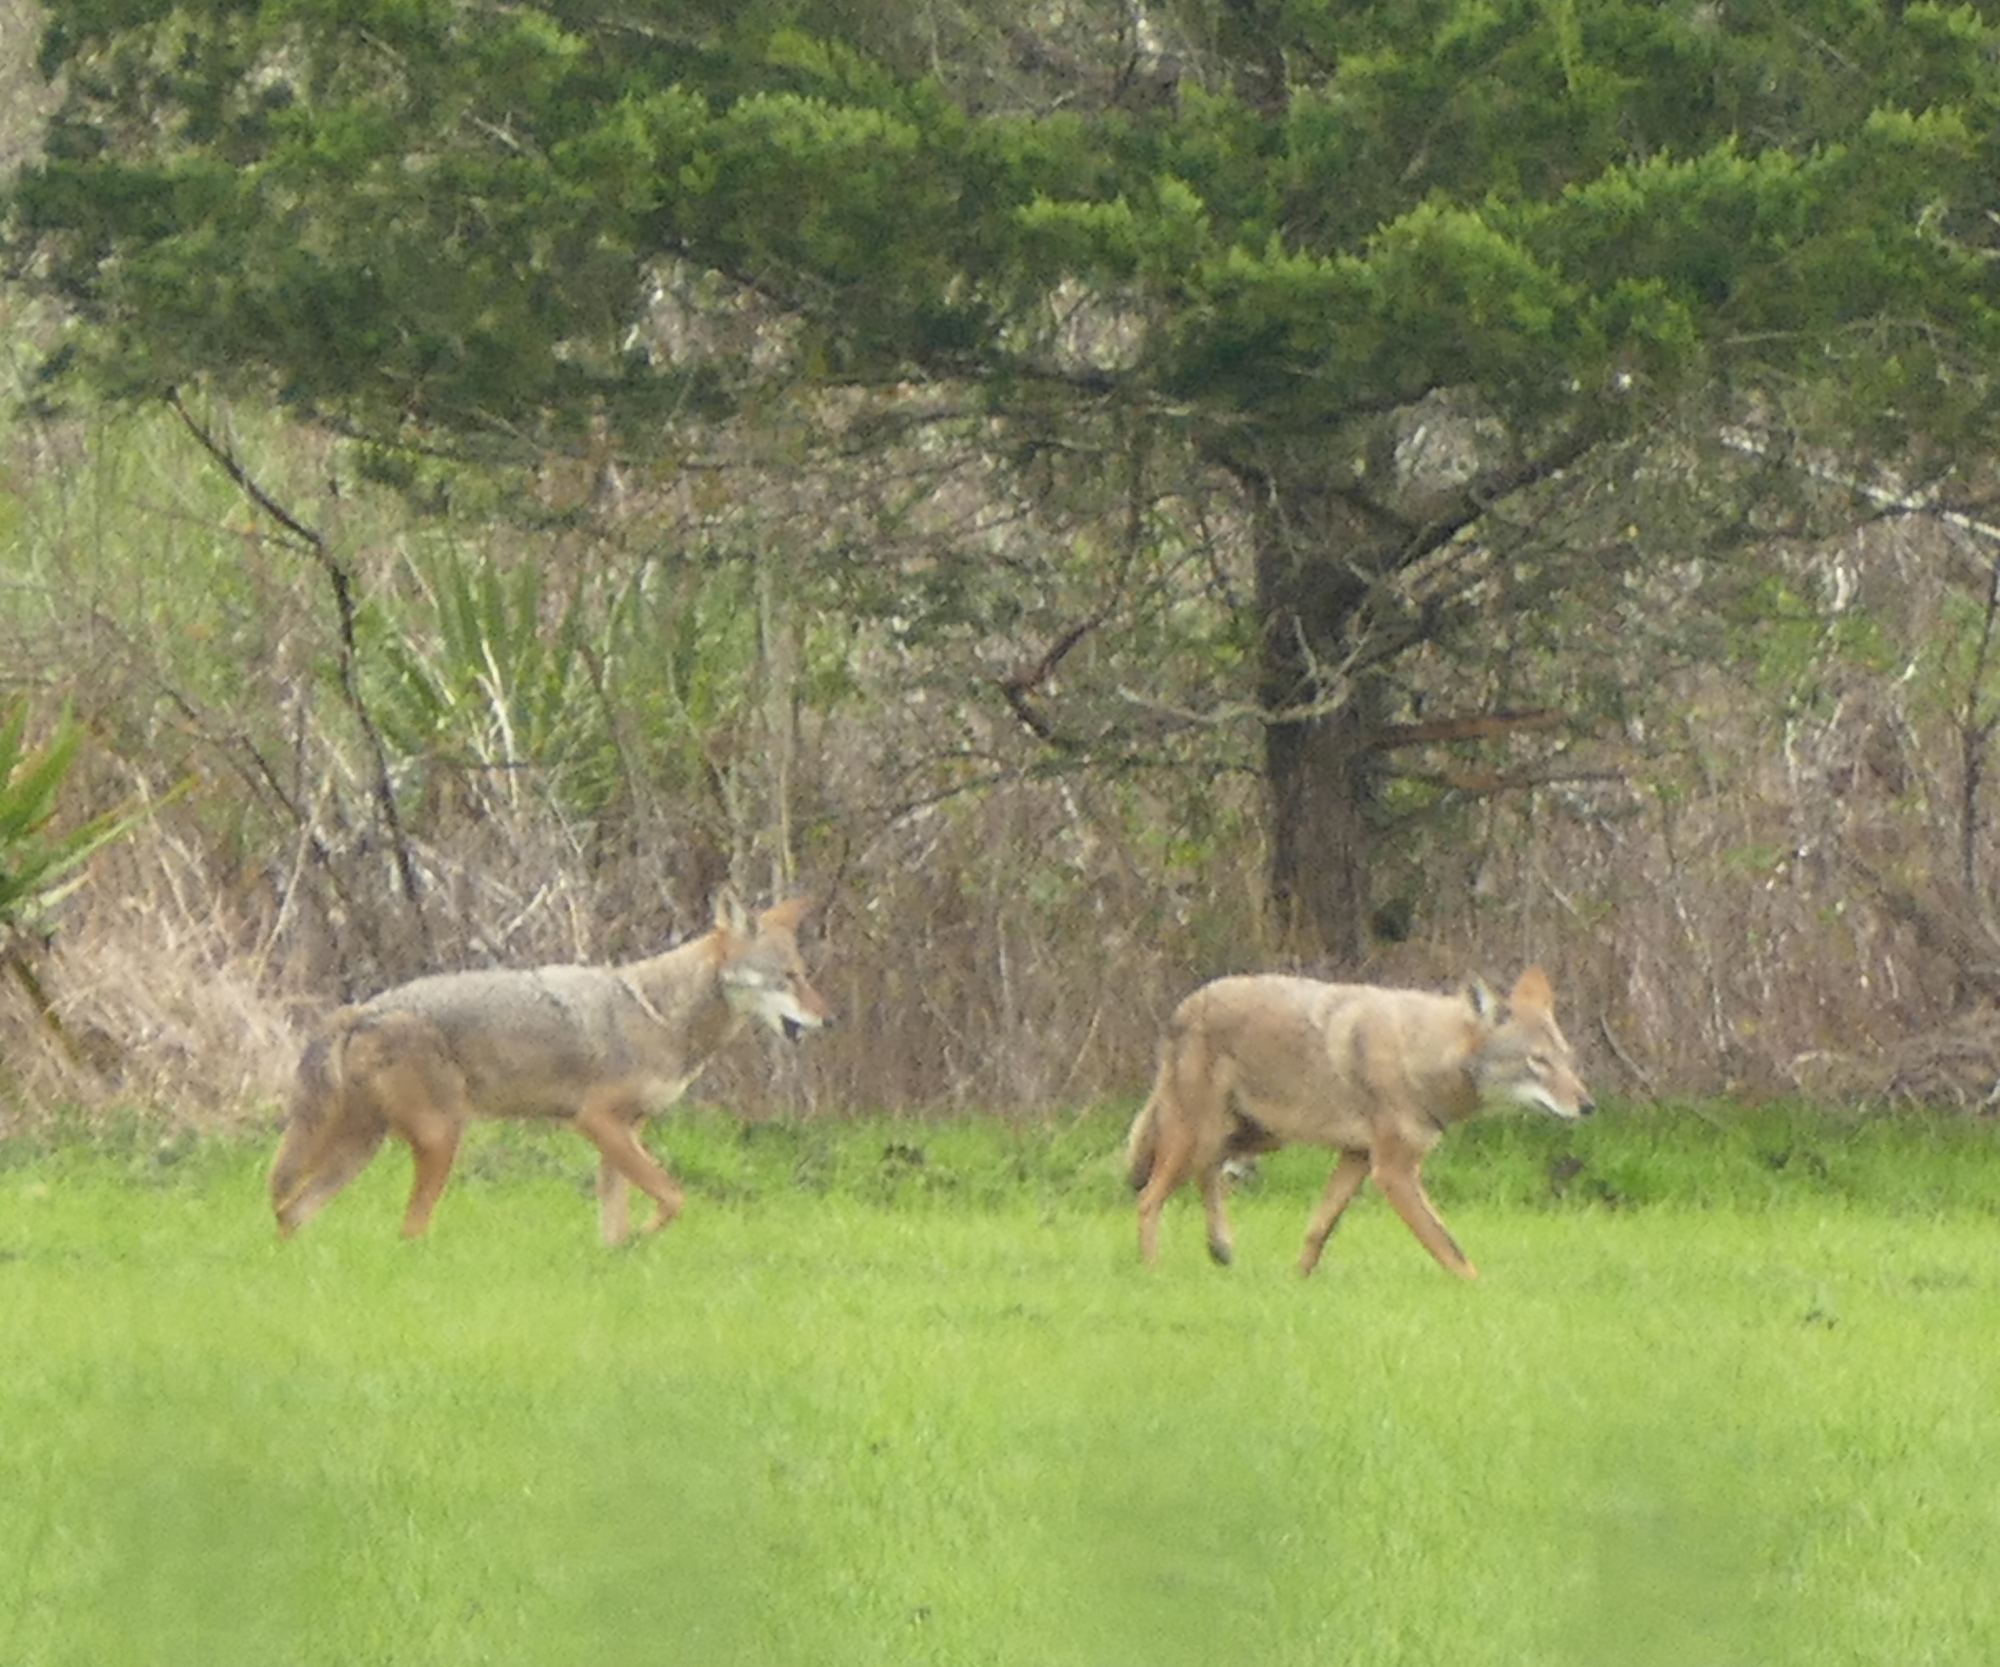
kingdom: Animalia
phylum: Chordata
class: Mammalia
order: Carnivora
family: Canidae
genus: Canis
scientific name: Canis latrans
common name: Coyote
